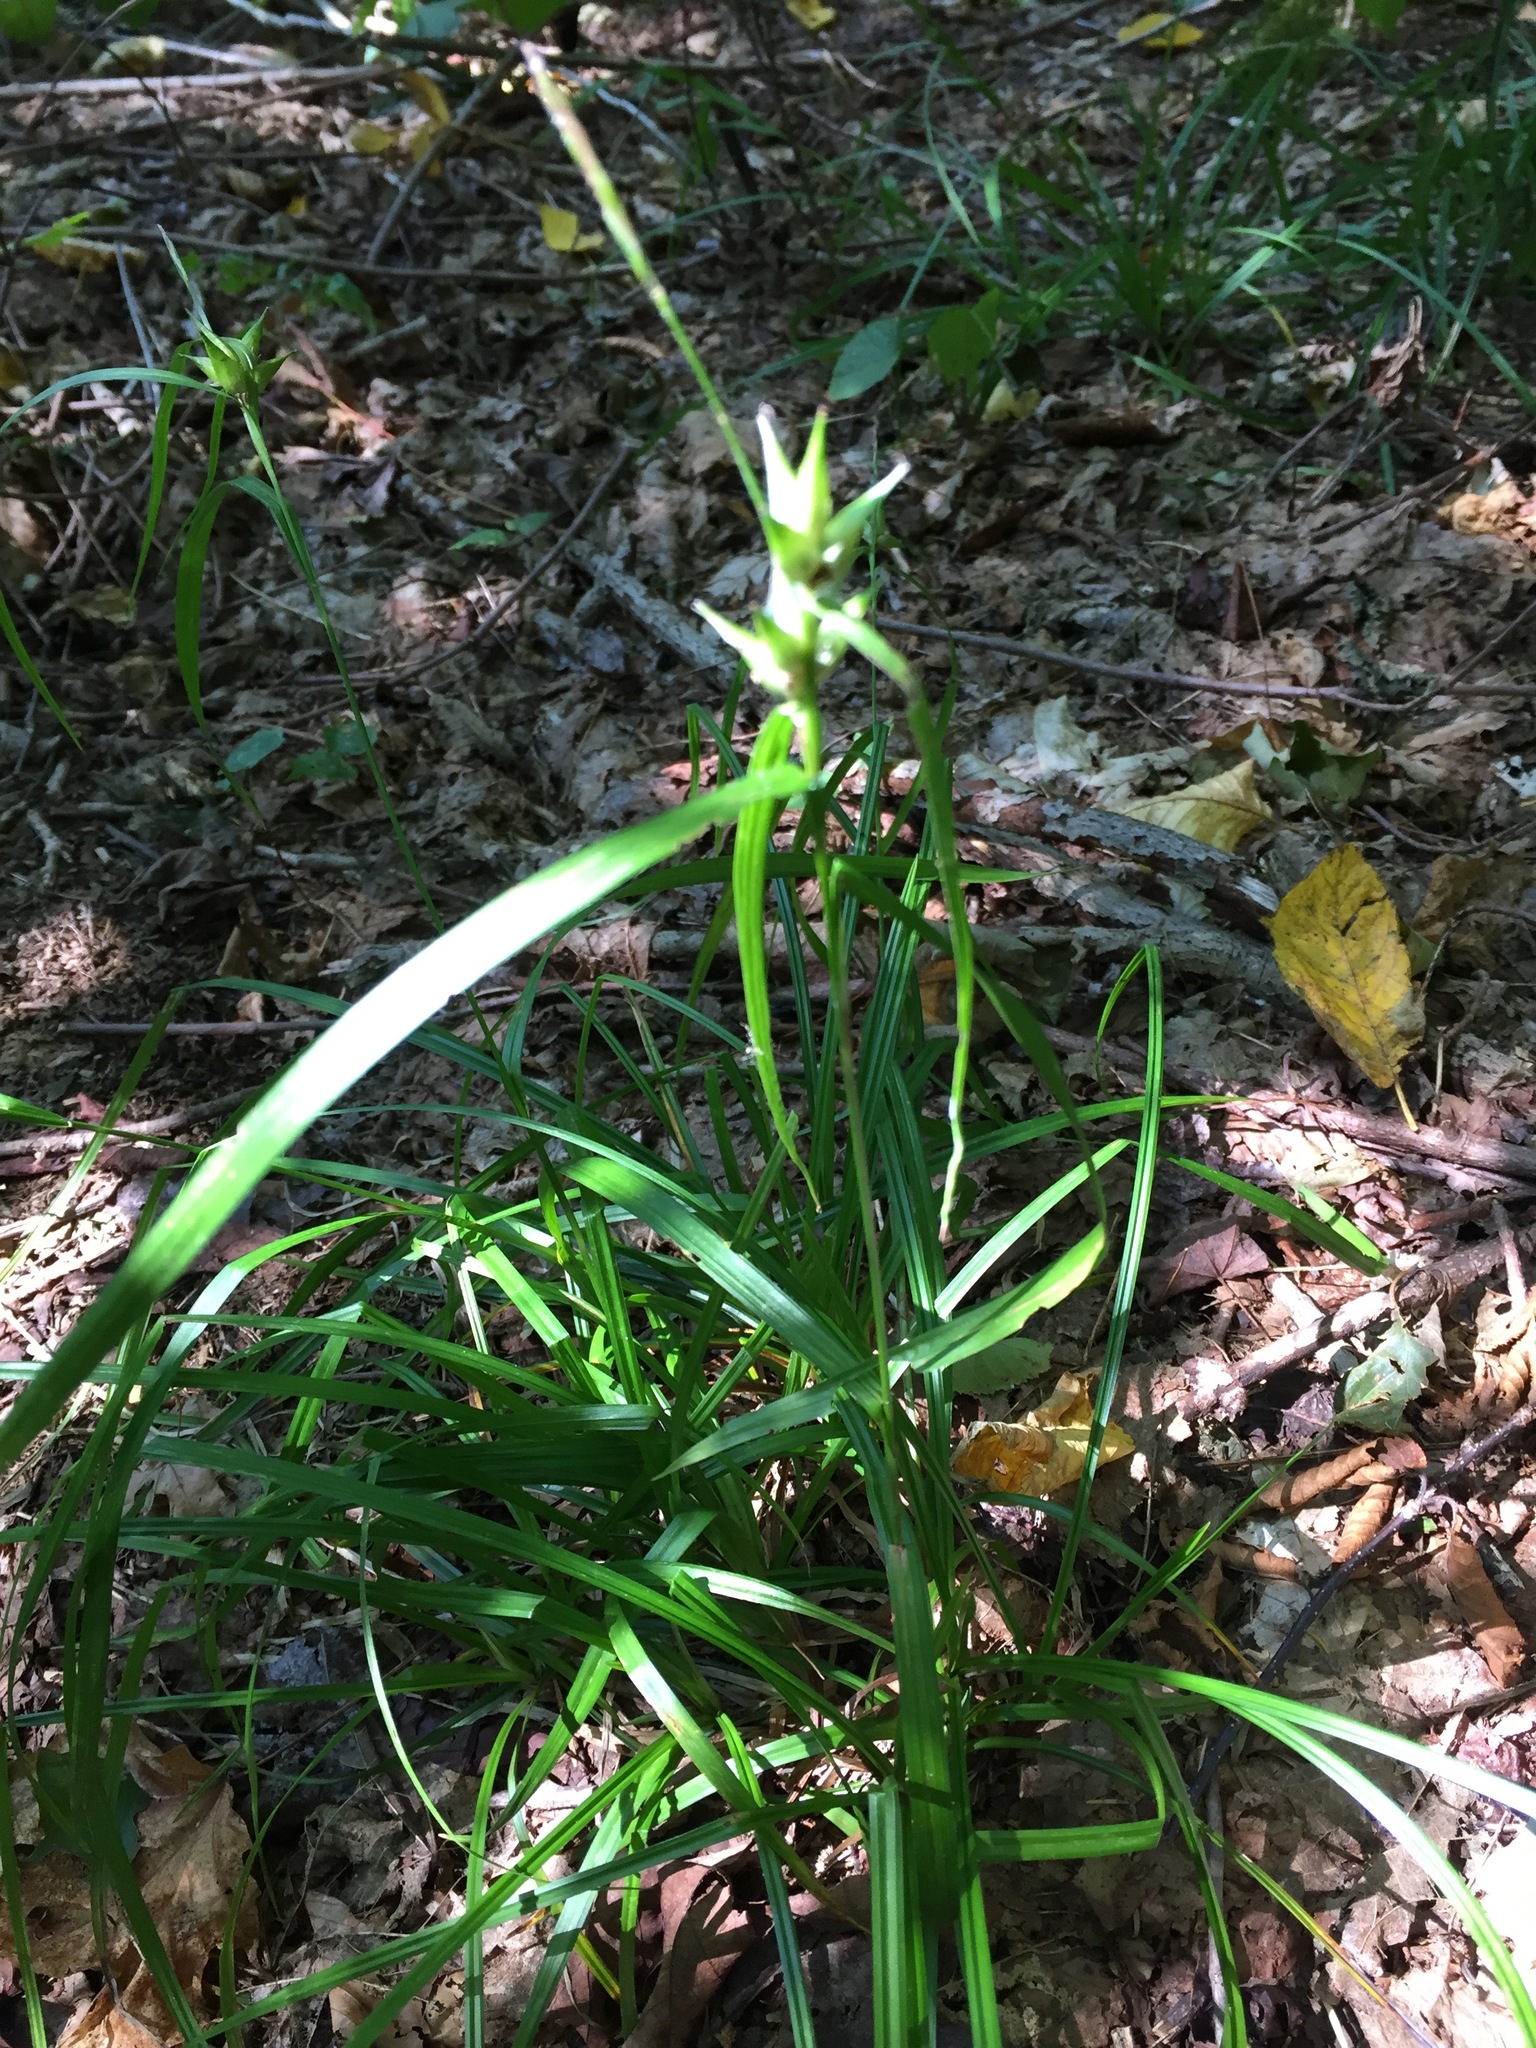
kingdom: Plantae
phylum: Tracheophyta
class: Liliopsida
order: Poales
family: Cyperaceae
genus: Carex
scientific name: Carex intumescens
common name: Greater bladder sedge
